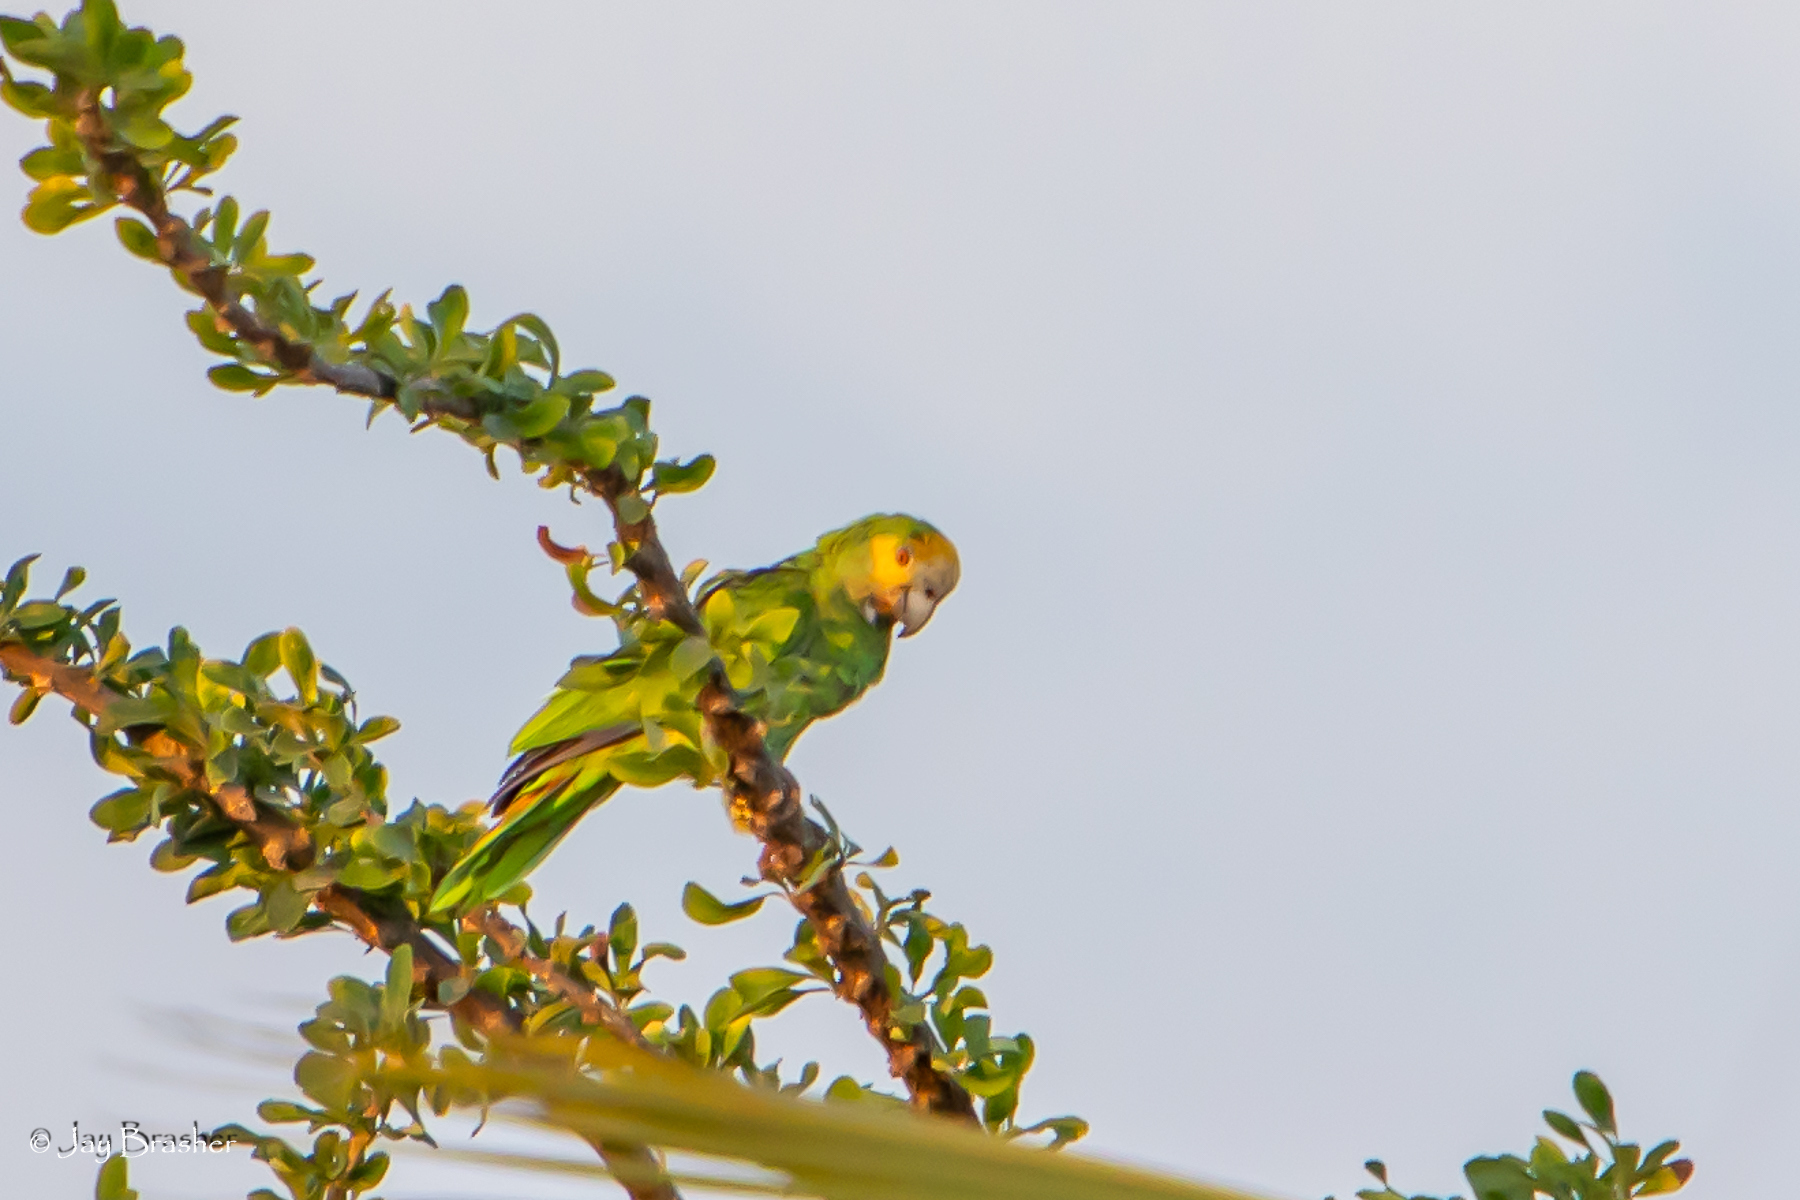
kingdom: Animalia
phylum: Chordata
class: Aves
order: Psittaciformes
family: Psittacidae
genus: Amazona
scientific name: Amazona barbadensis
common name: Yellow-shouldered amazon
